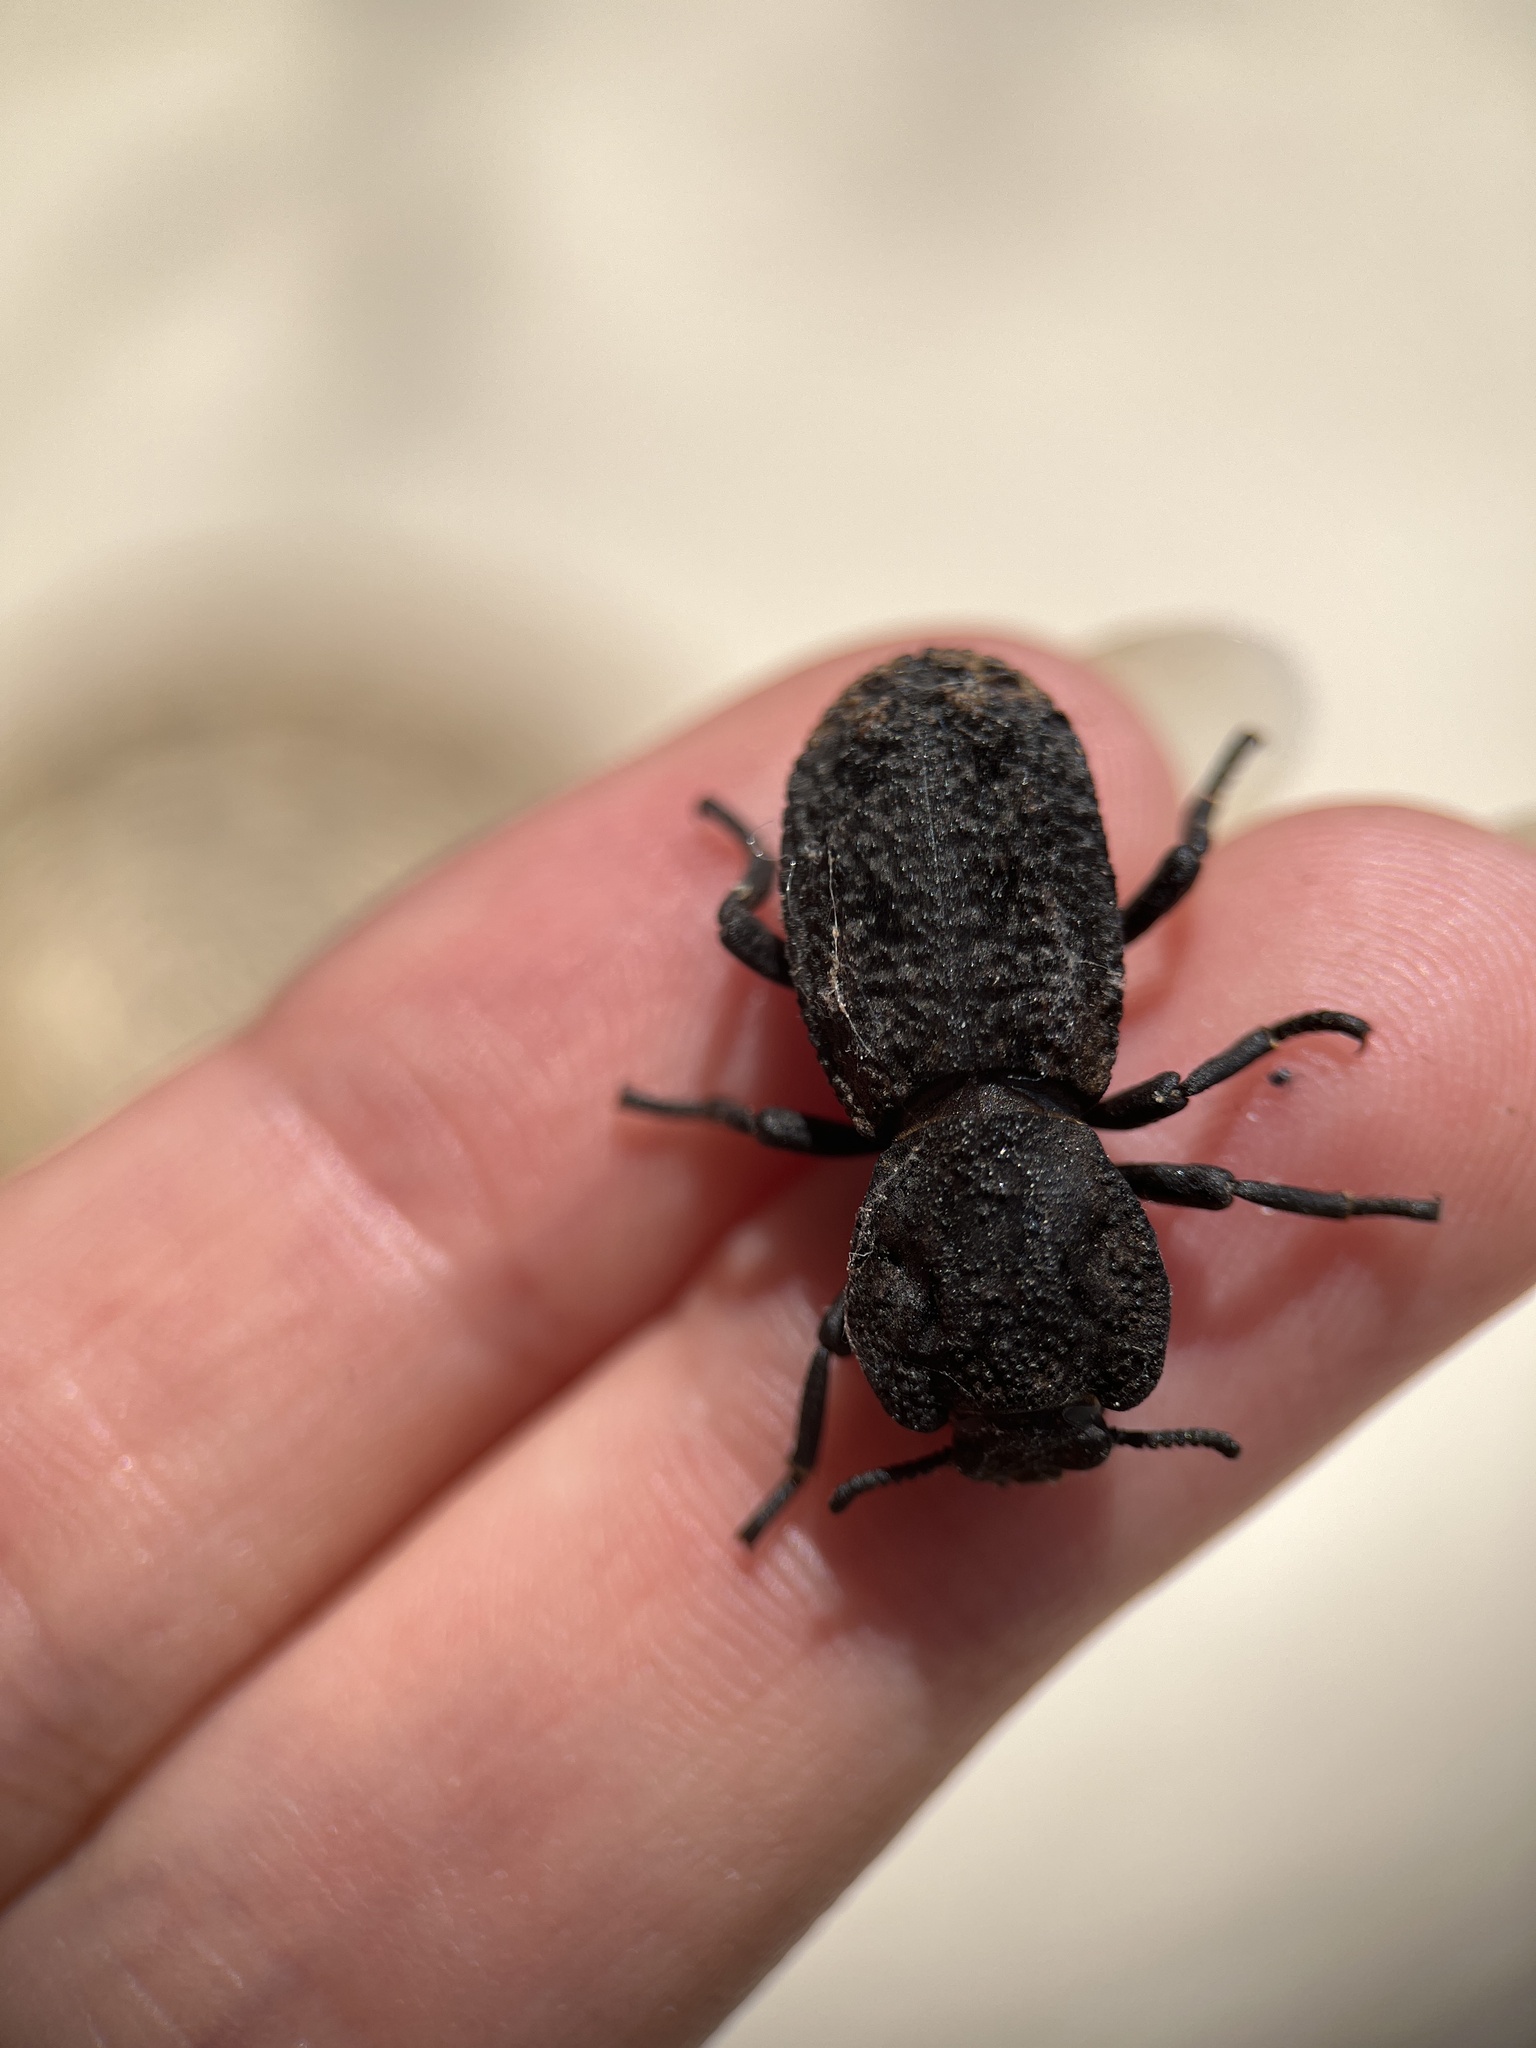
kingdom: Animalia
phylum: Arthropoda
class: Insecta
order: Coleoptera
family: Zopheridae
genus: Phloeodes
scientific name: Phloeodes diabolicus
